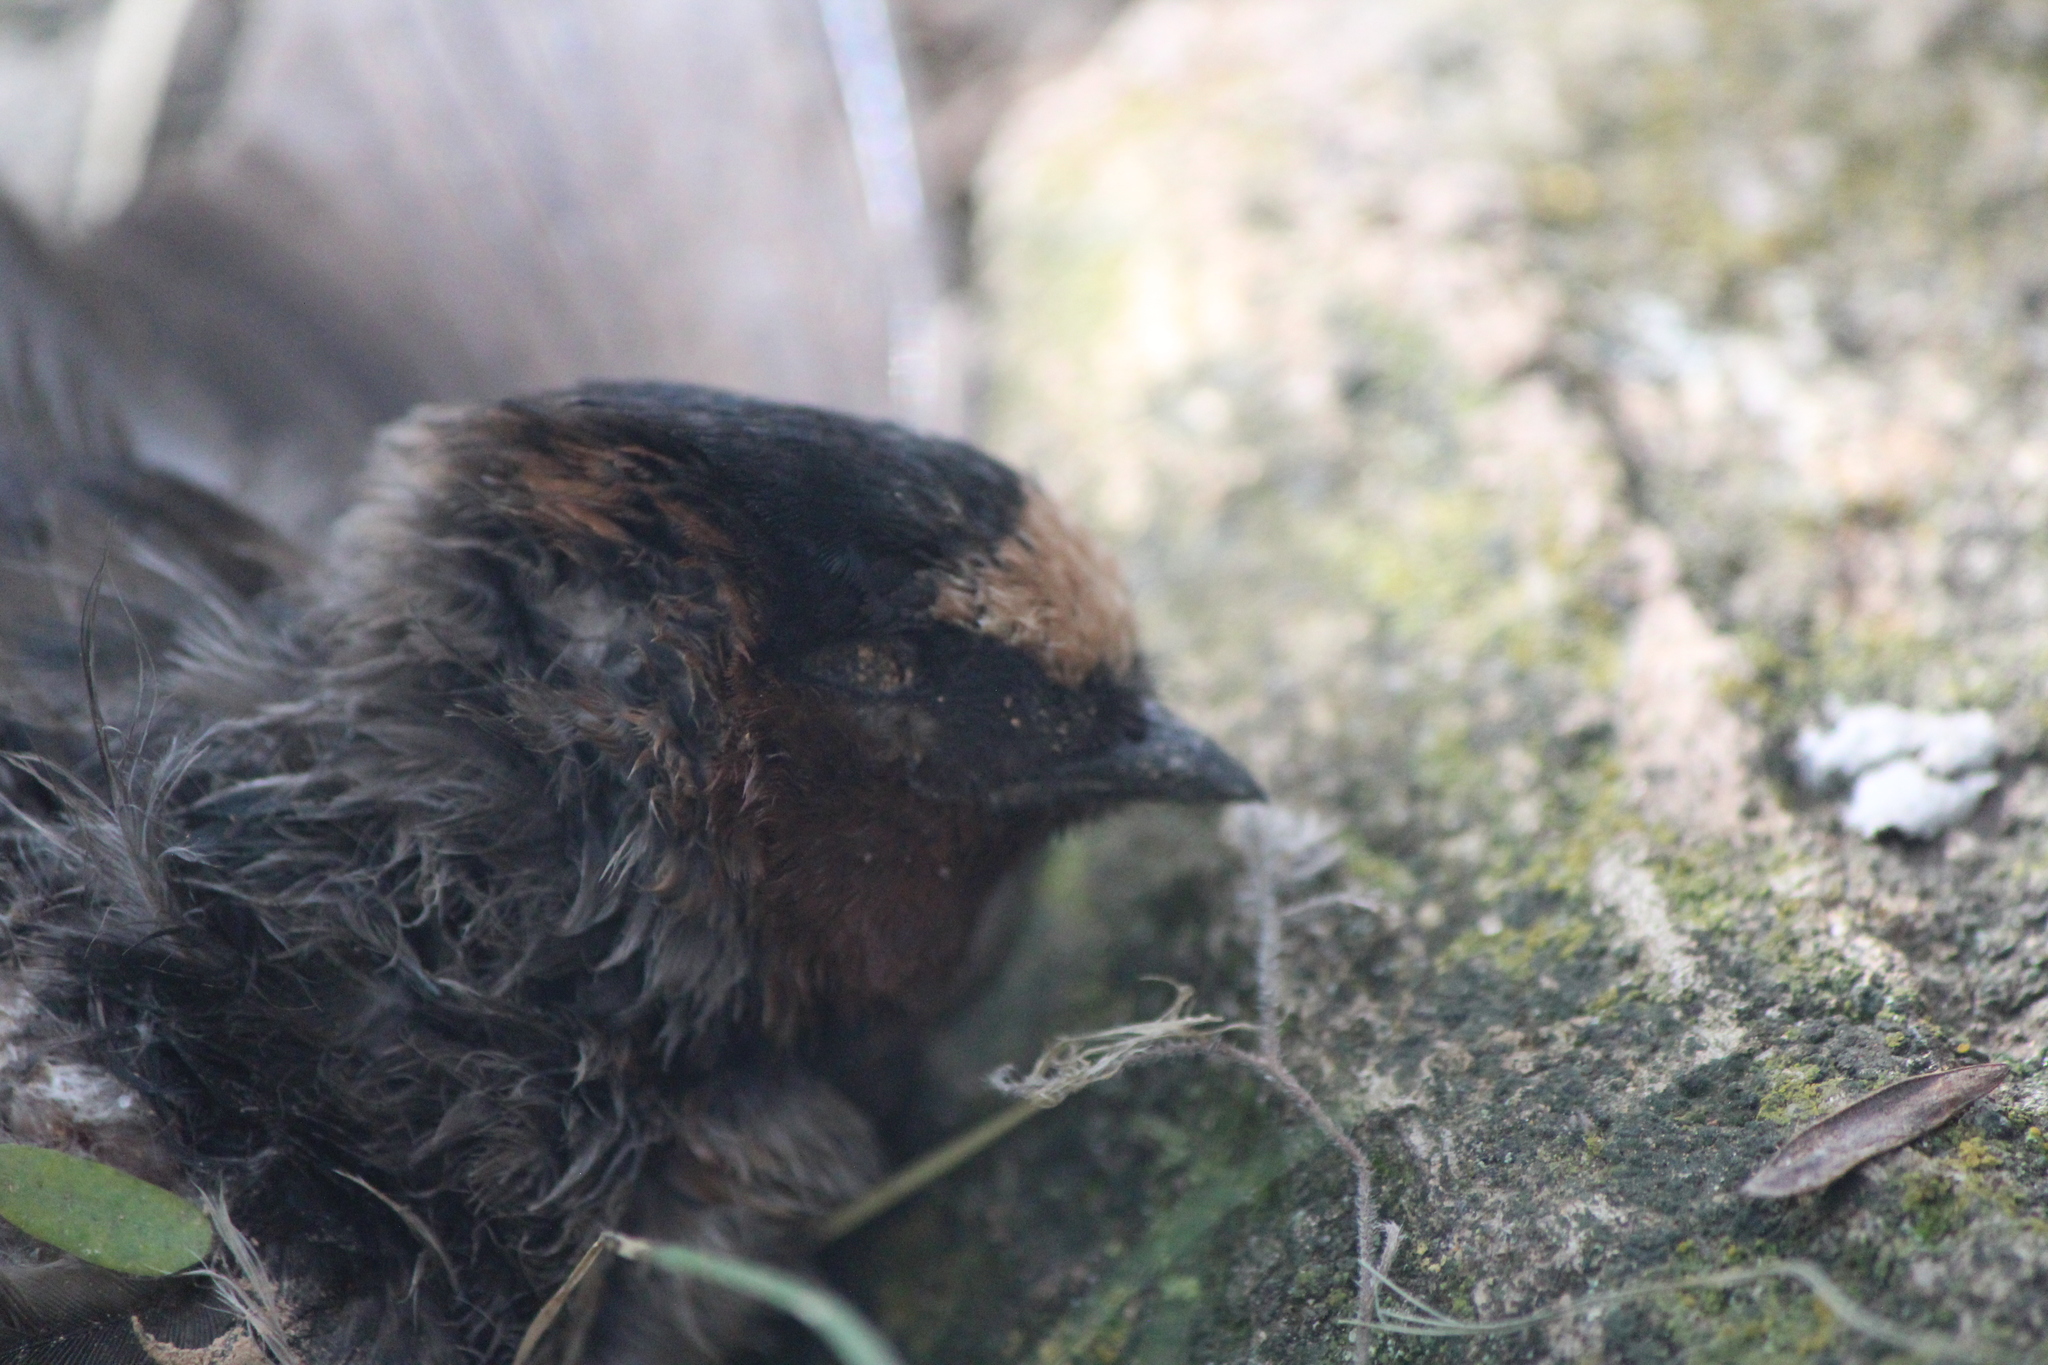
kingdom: Animalia
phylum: Chordata
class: Aves
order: Passeriformes
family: Hirundinidae
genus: Petrochelidon
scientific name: Petrochelidon pyrrhonota
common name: American cliff swallow
